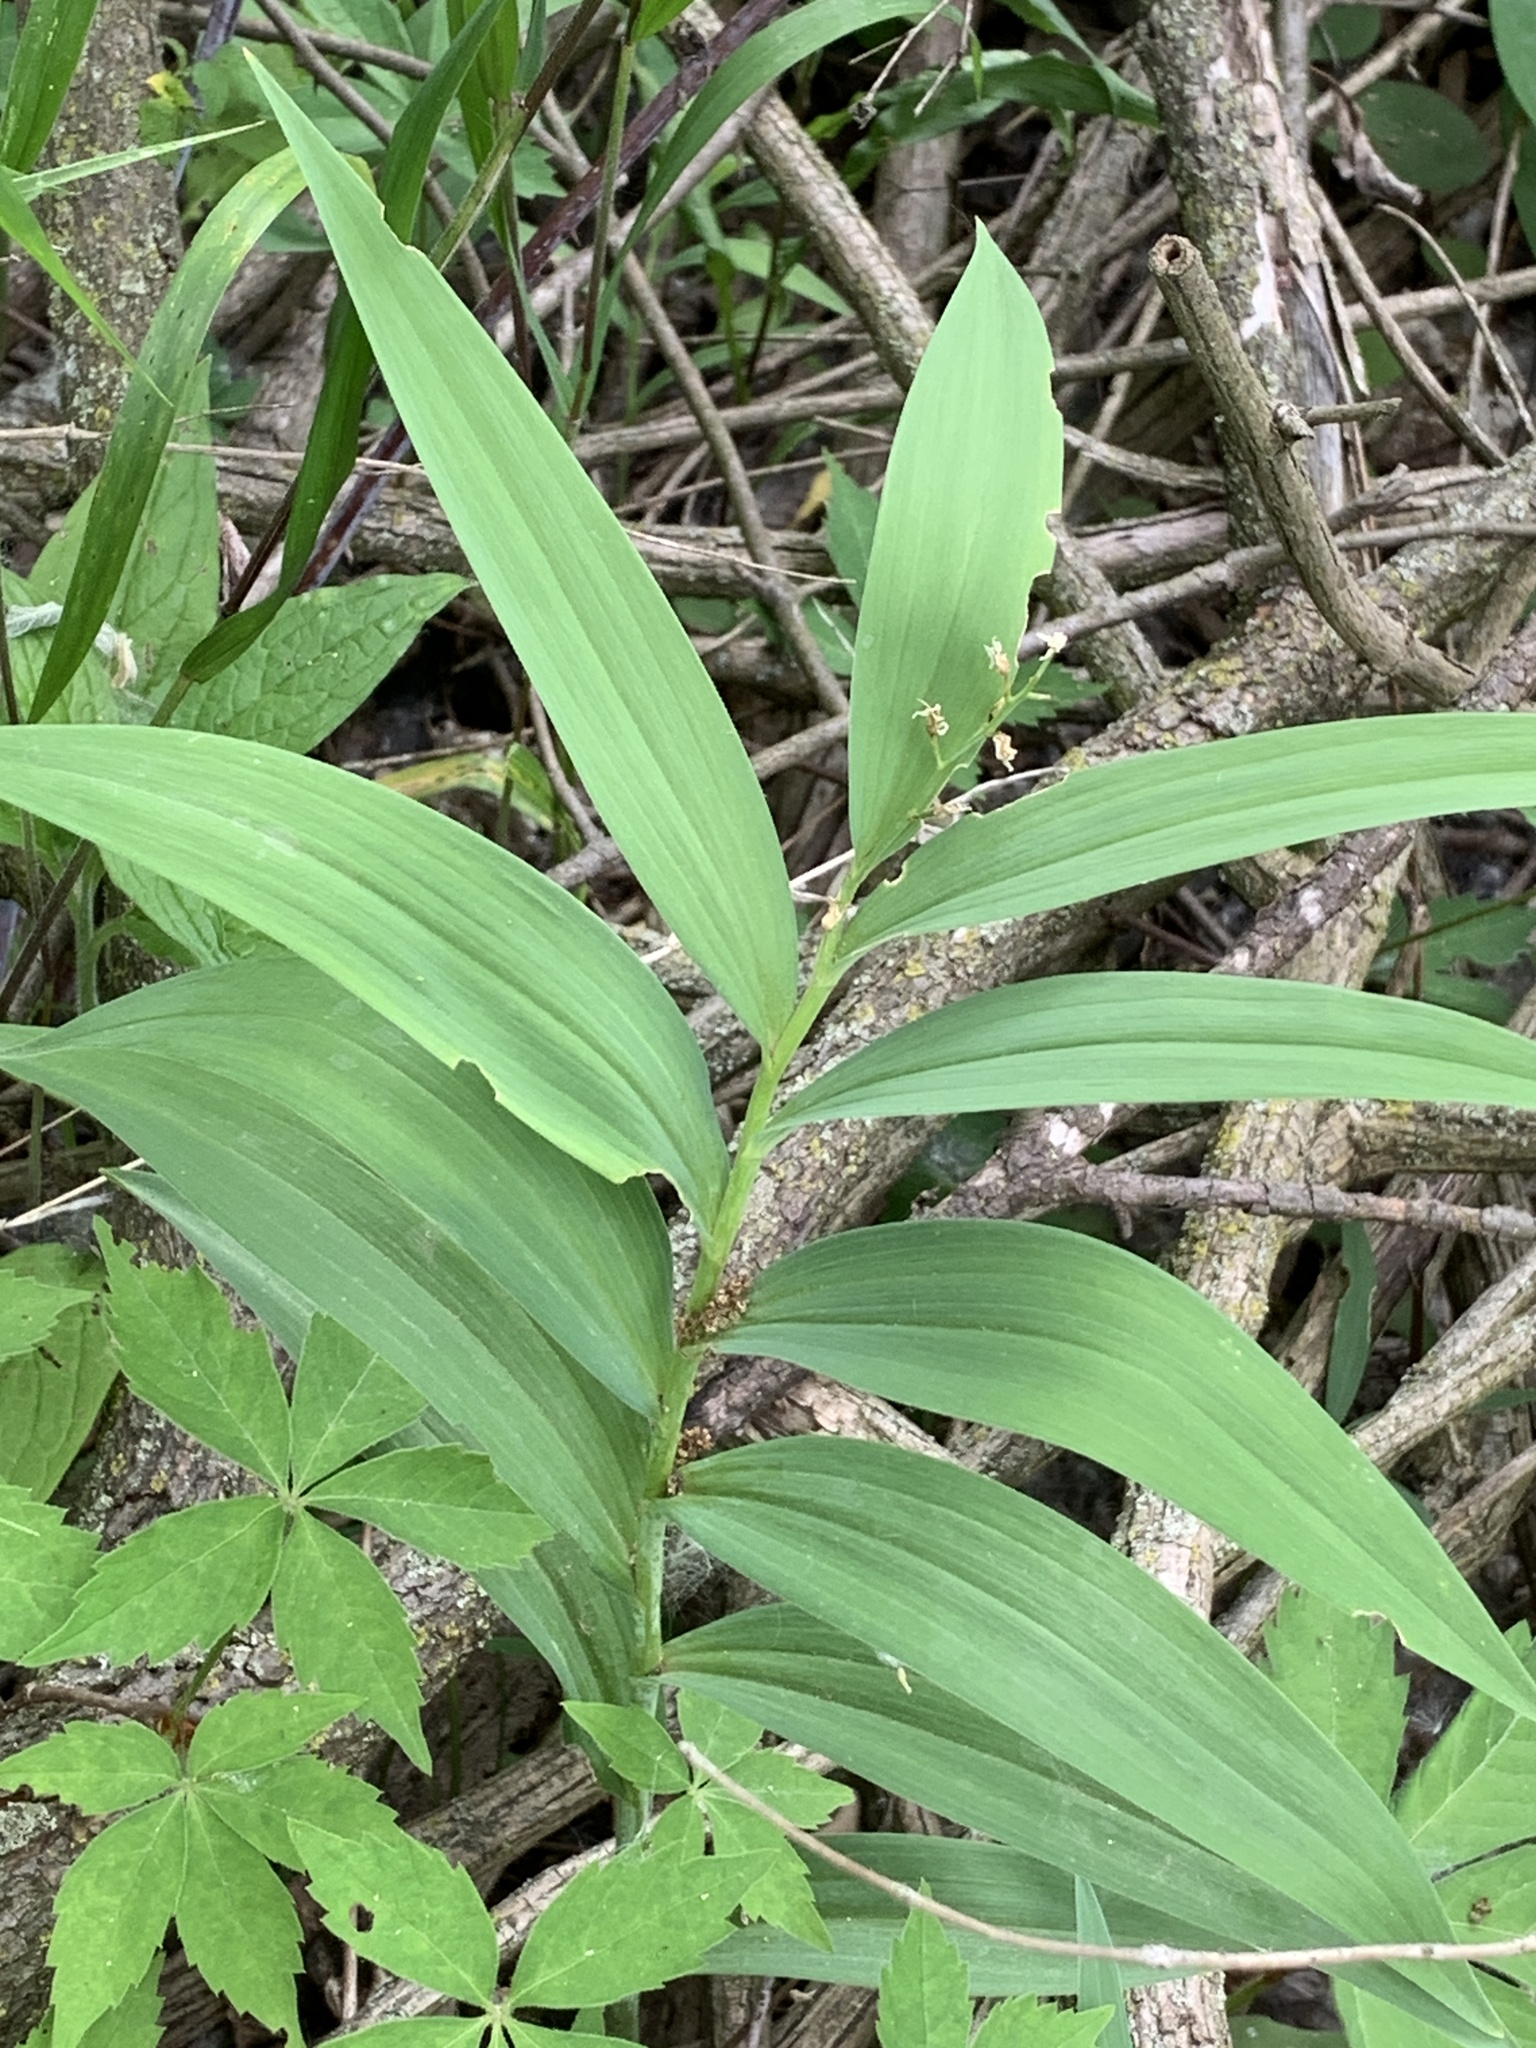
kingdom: Plantae
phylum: Tracheophyta
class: Liliopsida
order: Asparagales
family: Asparagaceae
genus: Maianthemum
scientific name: Maianthemum stellatum
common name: Little false solomon's seal
